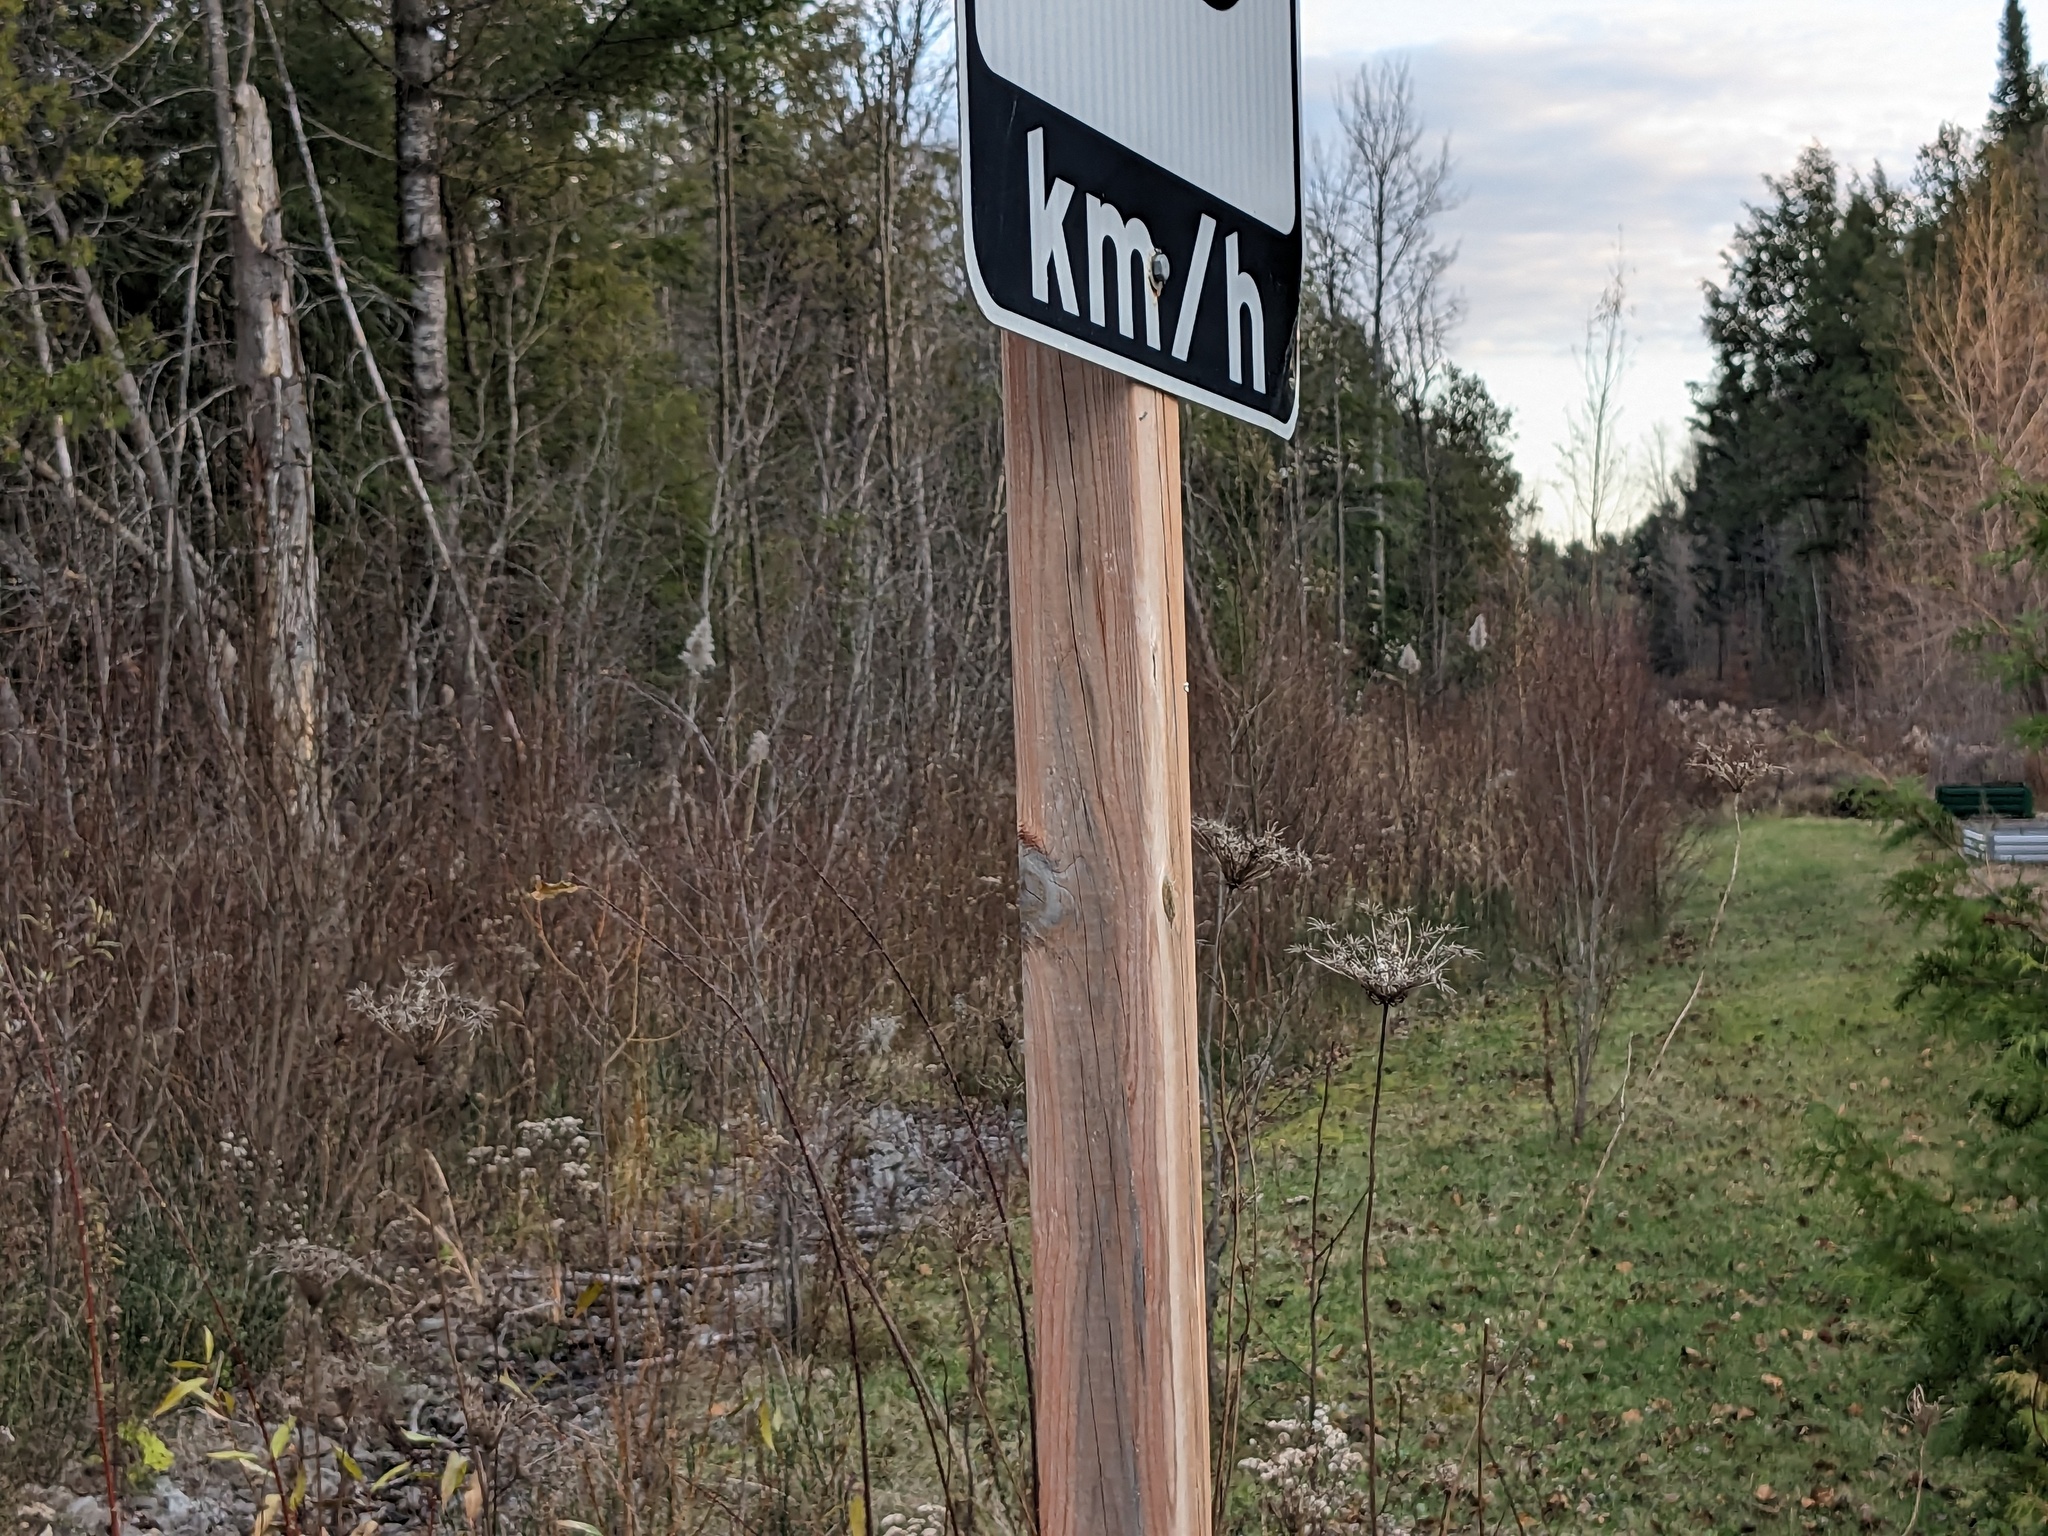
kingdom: Plantae
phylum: Tracheophyta
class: Liliopsida
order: Poales
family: Poaceae
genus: Phragmites
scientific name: Phragmites australis
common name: Common reed
